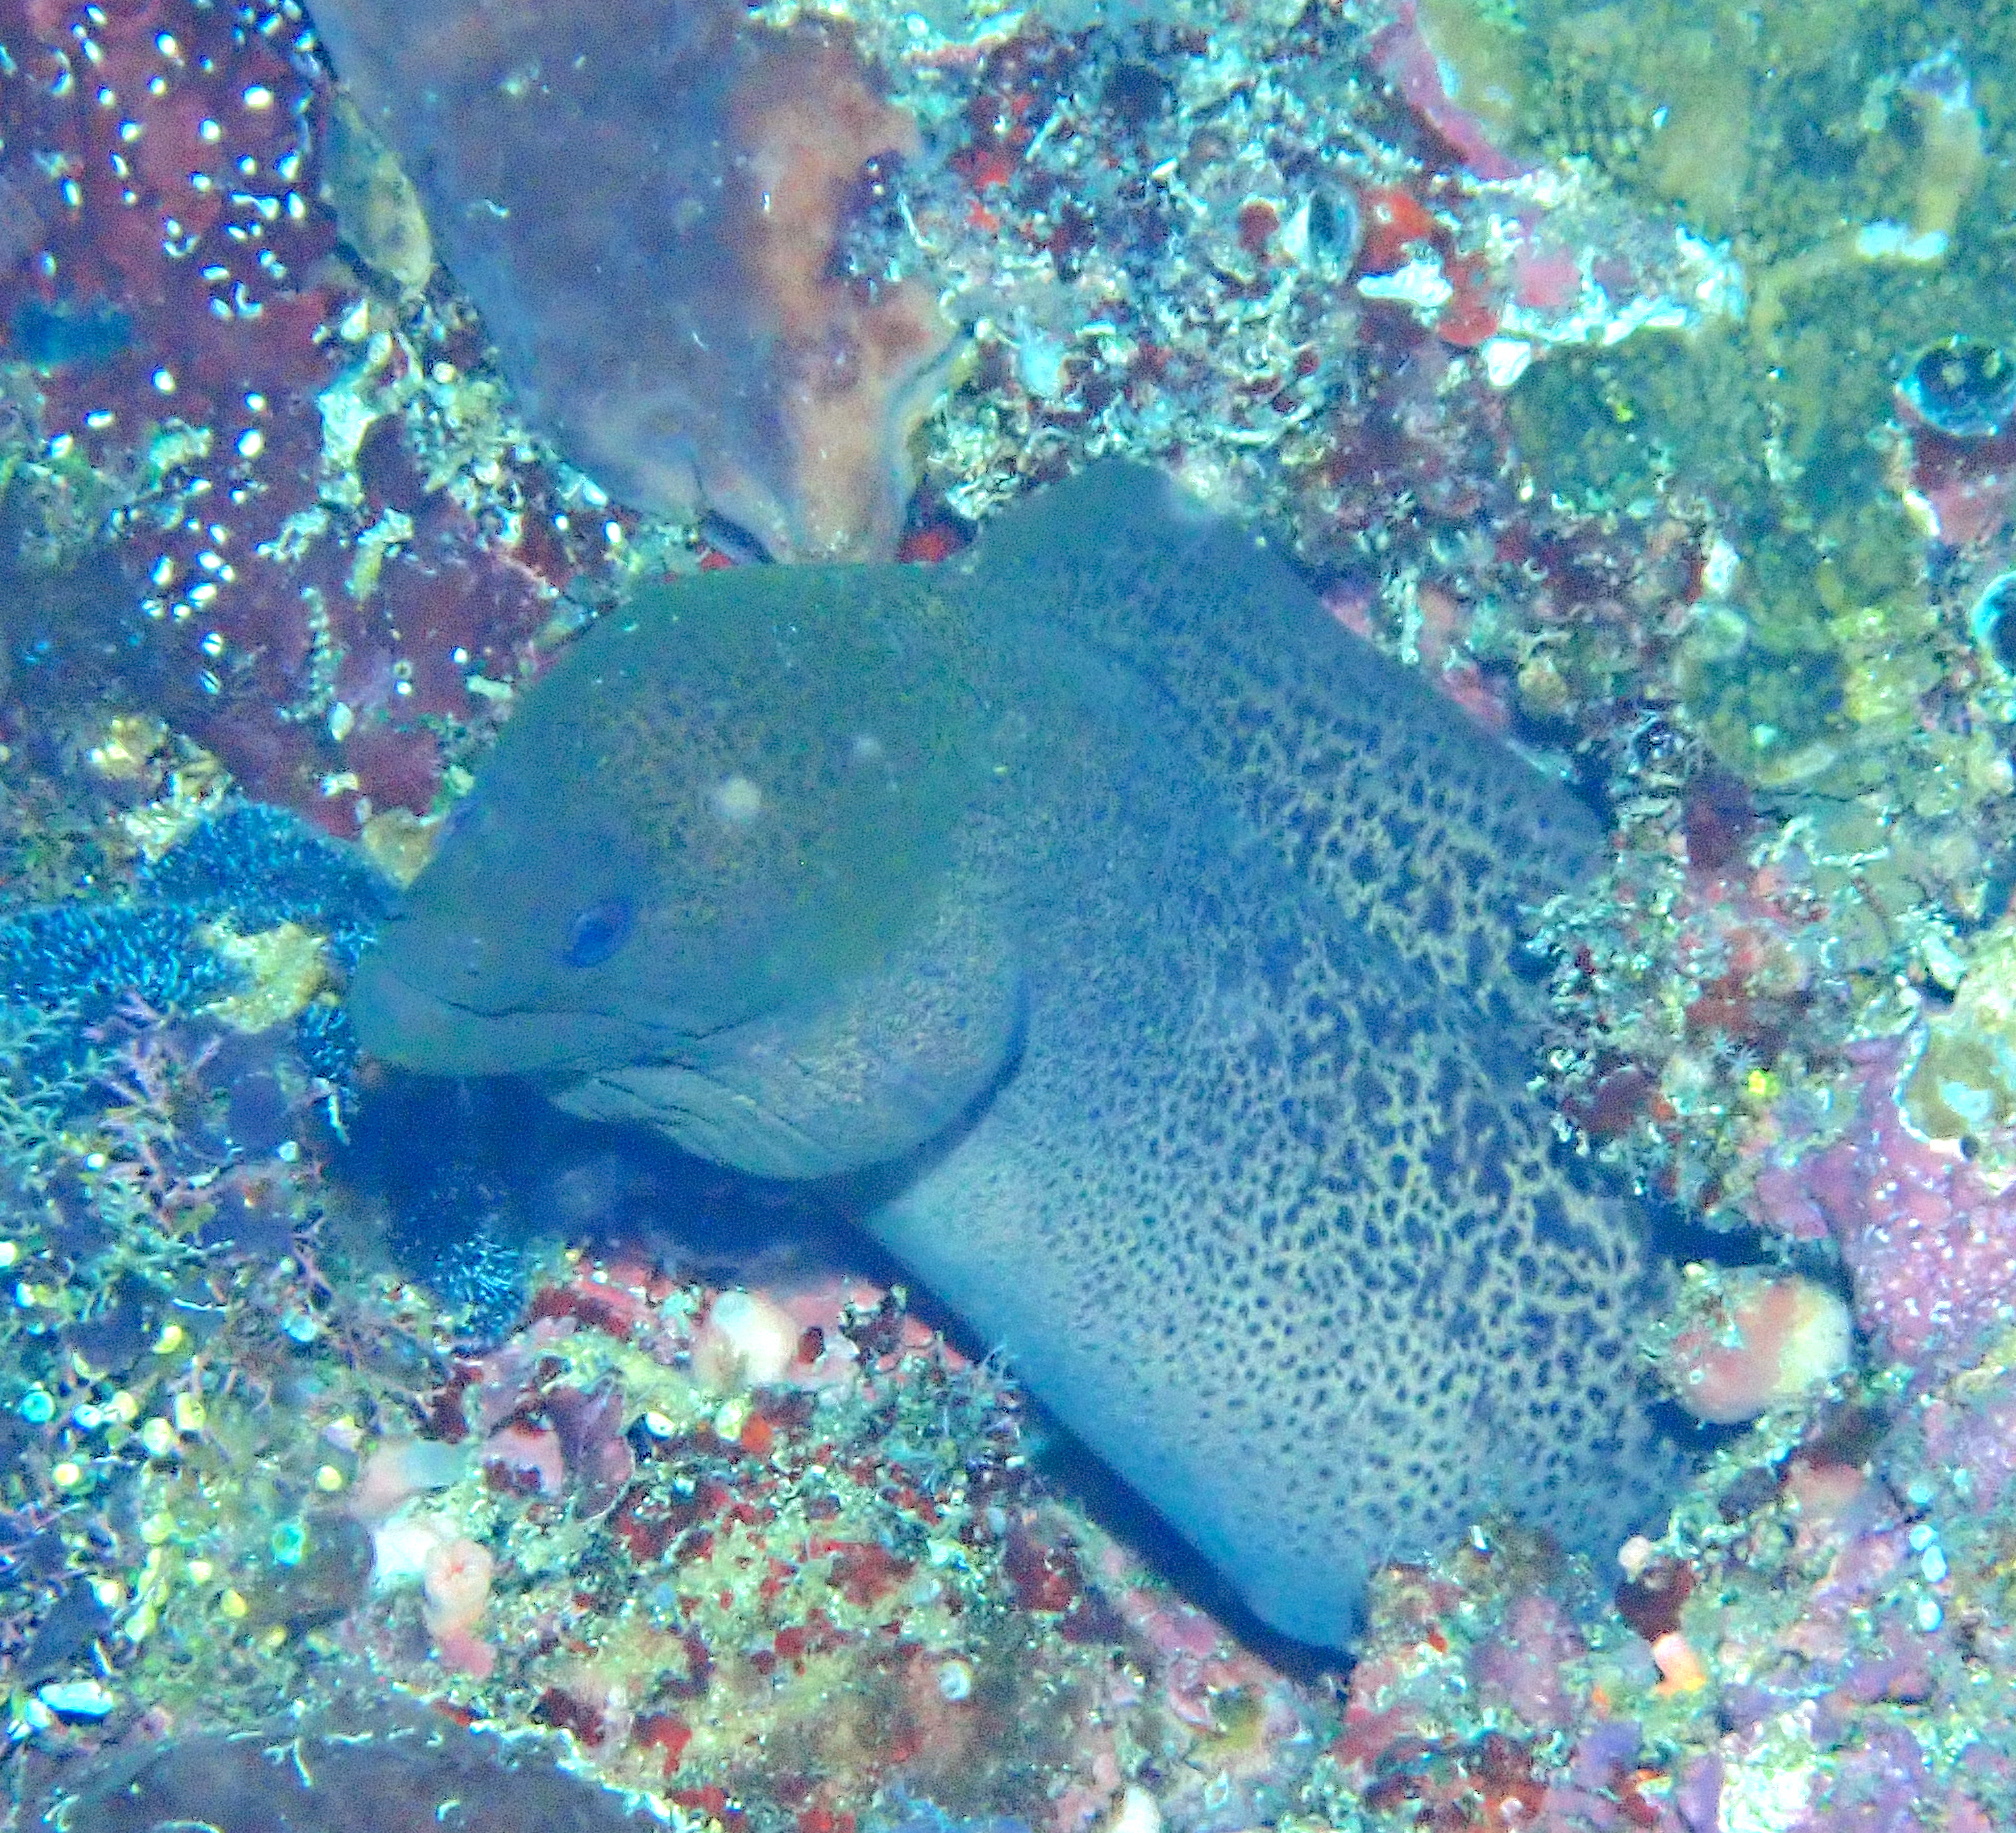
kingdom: Animalia
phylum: Chordata
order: Anguilliformes
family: Muraenidae
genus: Gymnothorax
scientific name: Gymnothorax javanicus
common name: Giant moray
